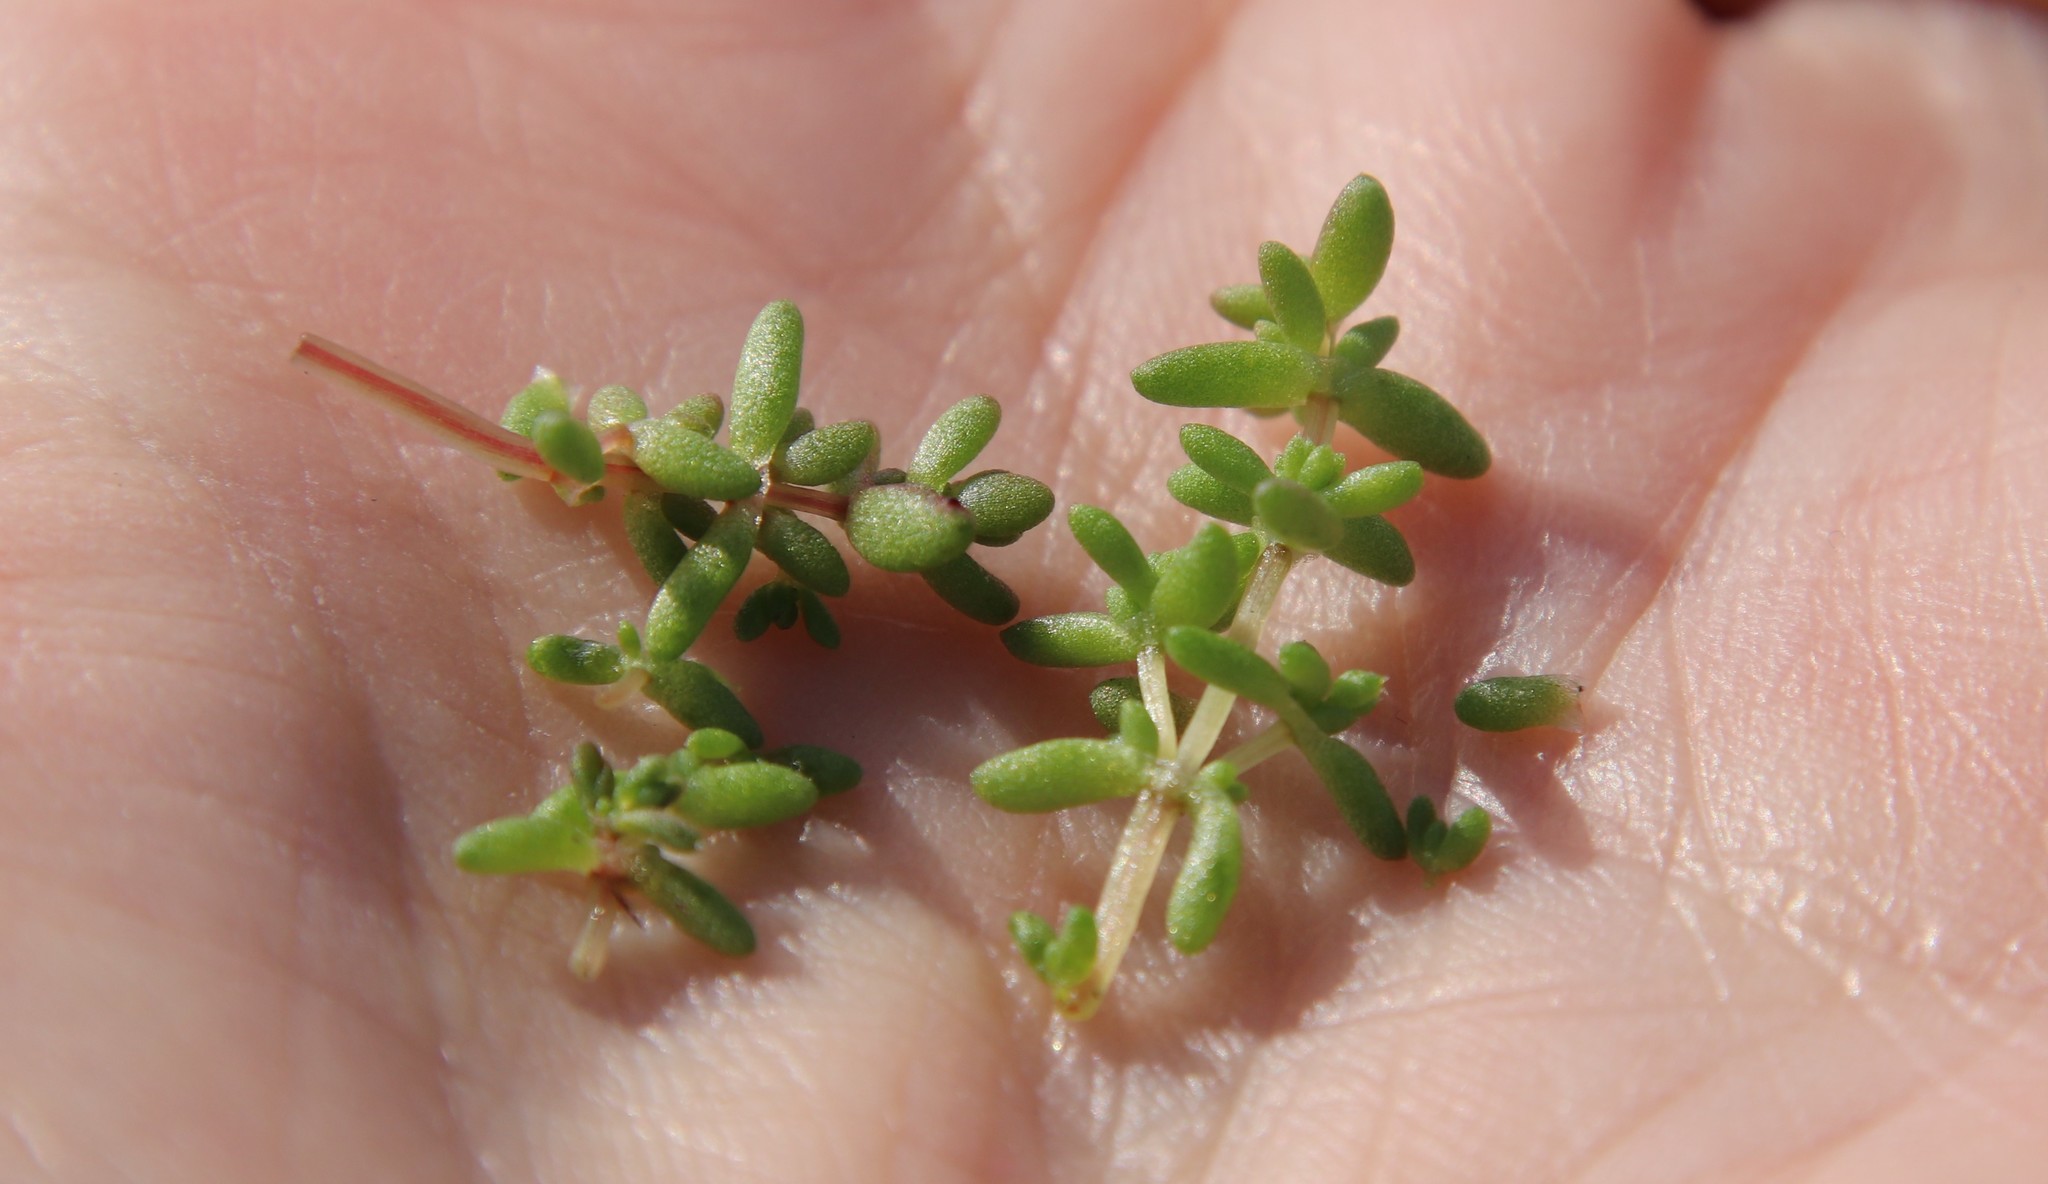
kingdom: Plantae
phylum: Tracheophyta
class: Magnoliopsida
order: Saxifragales
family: Crassulaceae
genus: Crassula
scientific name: Crassula connata
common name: Erect pygmyweed
